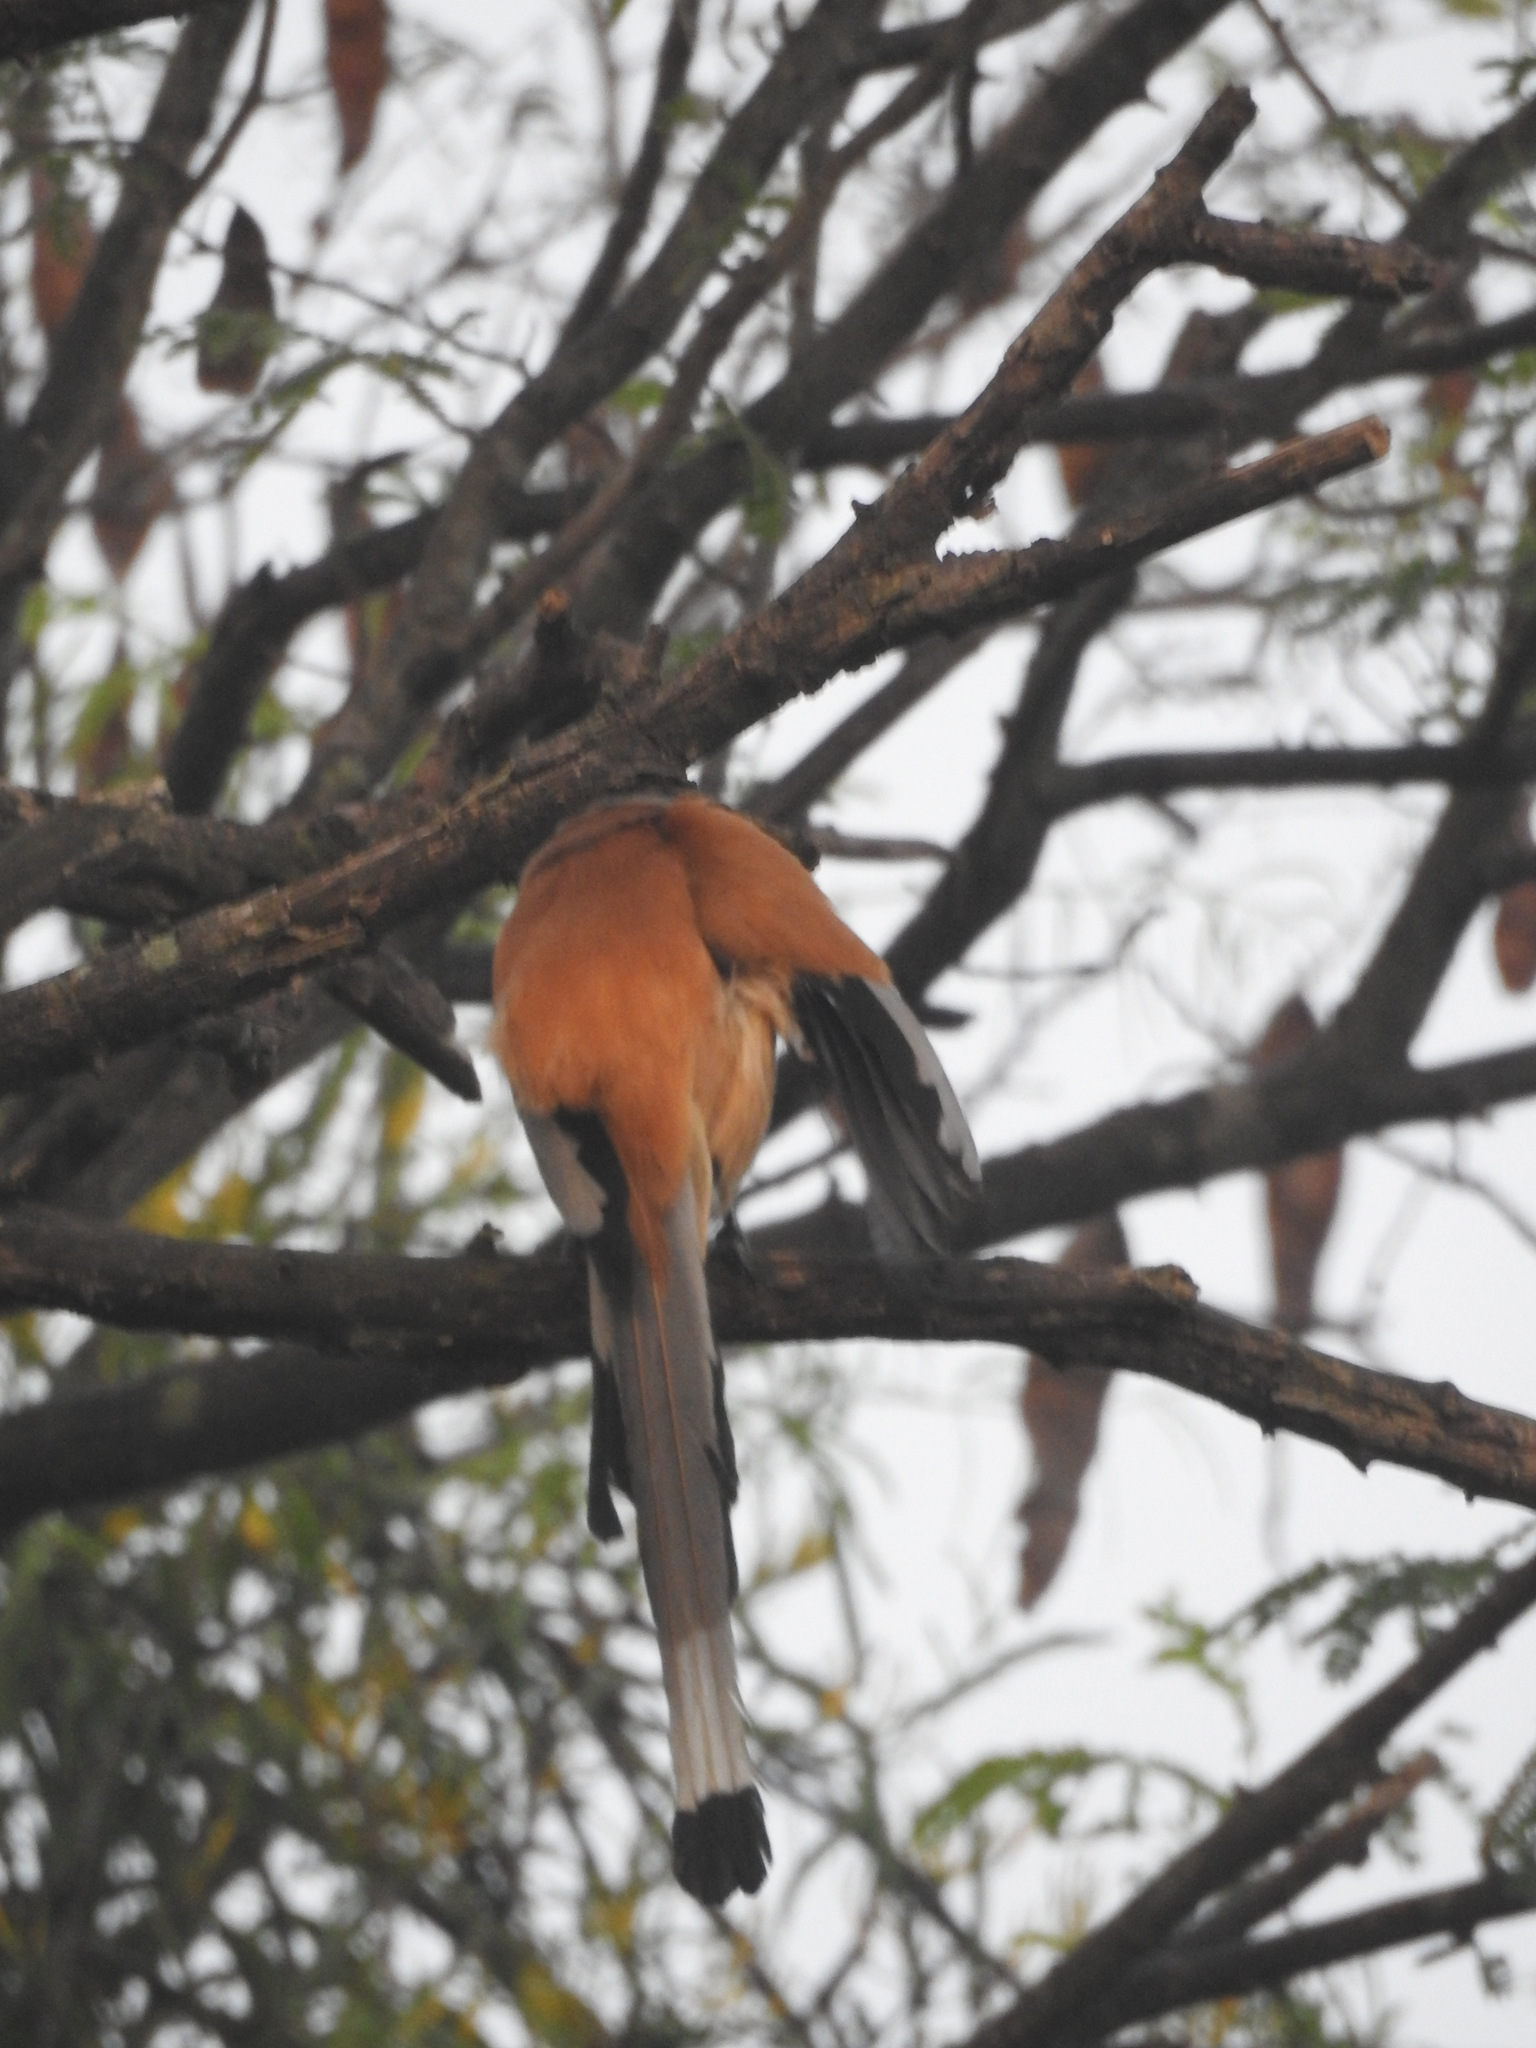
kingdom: Animalia
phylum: Chordata
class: Aves
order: Passeriformes
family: Corvidae
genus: Dendrocitta
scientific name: Dendrocitta vagabunda
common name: Rufous treepie
